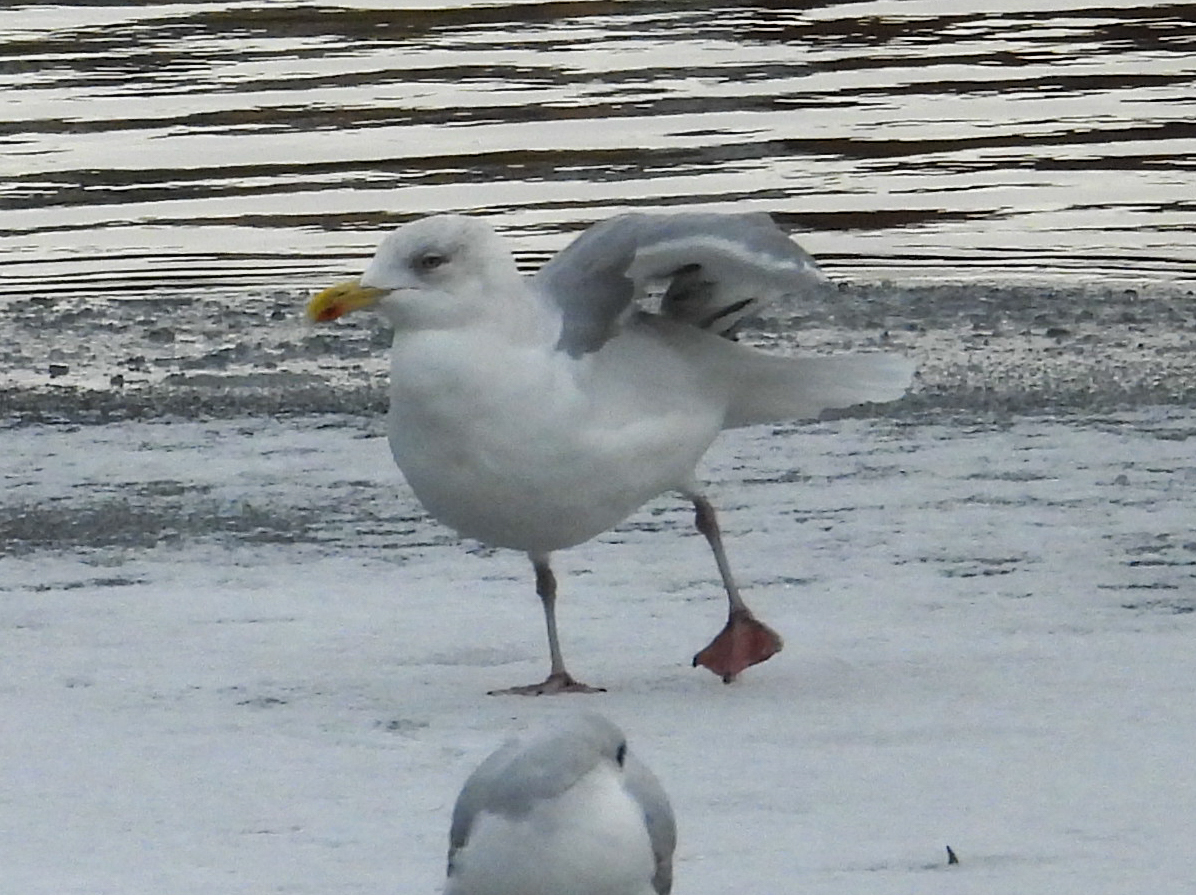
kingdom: Animalia
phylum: Chordata
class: Aves
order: Charadriiformes
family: Laridae
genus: Larus
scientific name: Larus argentatus
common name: Herring gull
